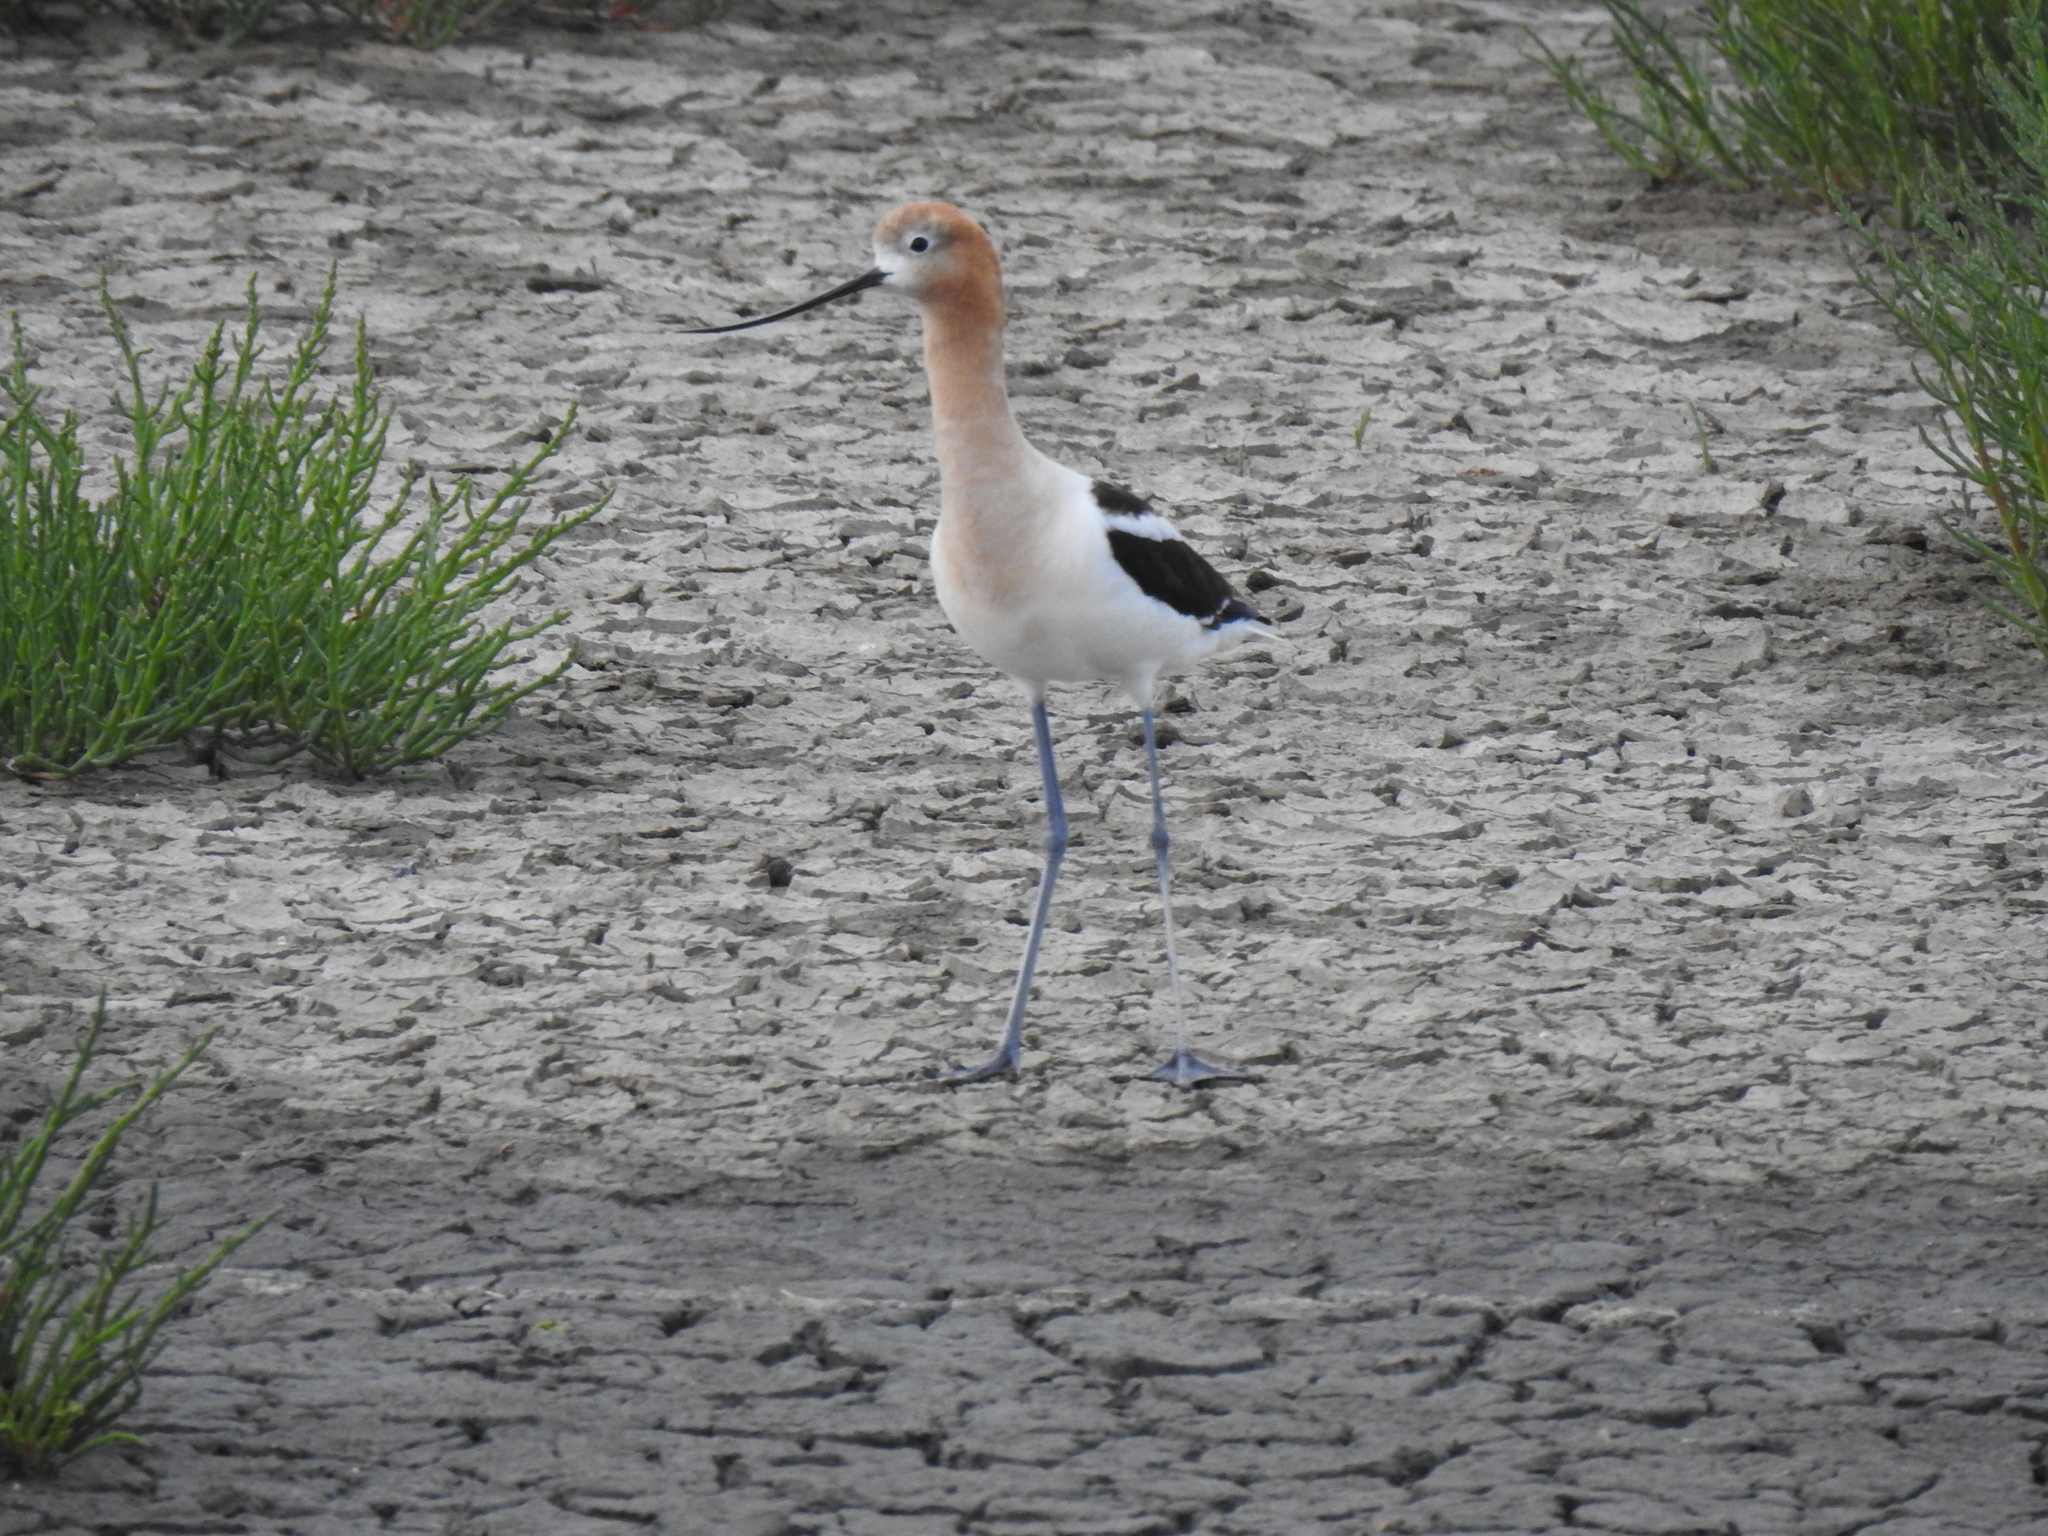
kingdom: Animalia
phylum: Chordata
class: Aves
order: Charadriiformes
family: Recurvirostridae
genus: Recurvirostra
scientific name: Recurvirostra americana
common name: American avocet
